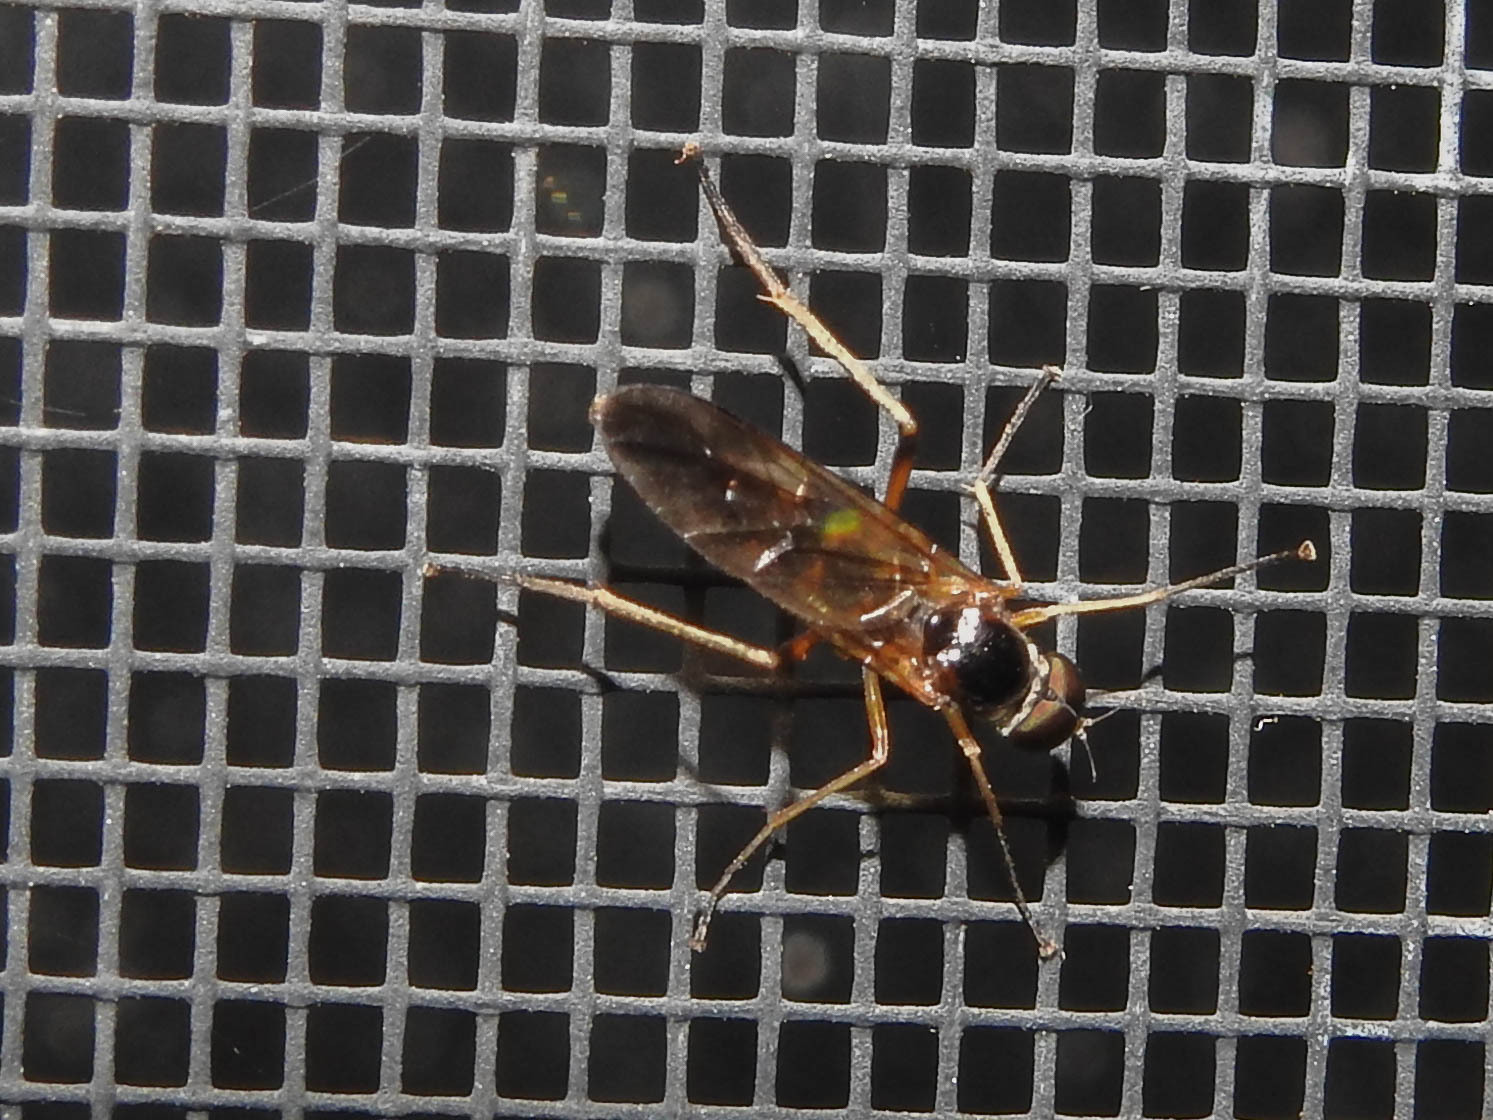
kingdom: Animalia
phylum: Arthropoda
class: Insecta
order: Diptera
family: Xylophagidae
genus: Dialysis
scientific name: Dialysis elongata
